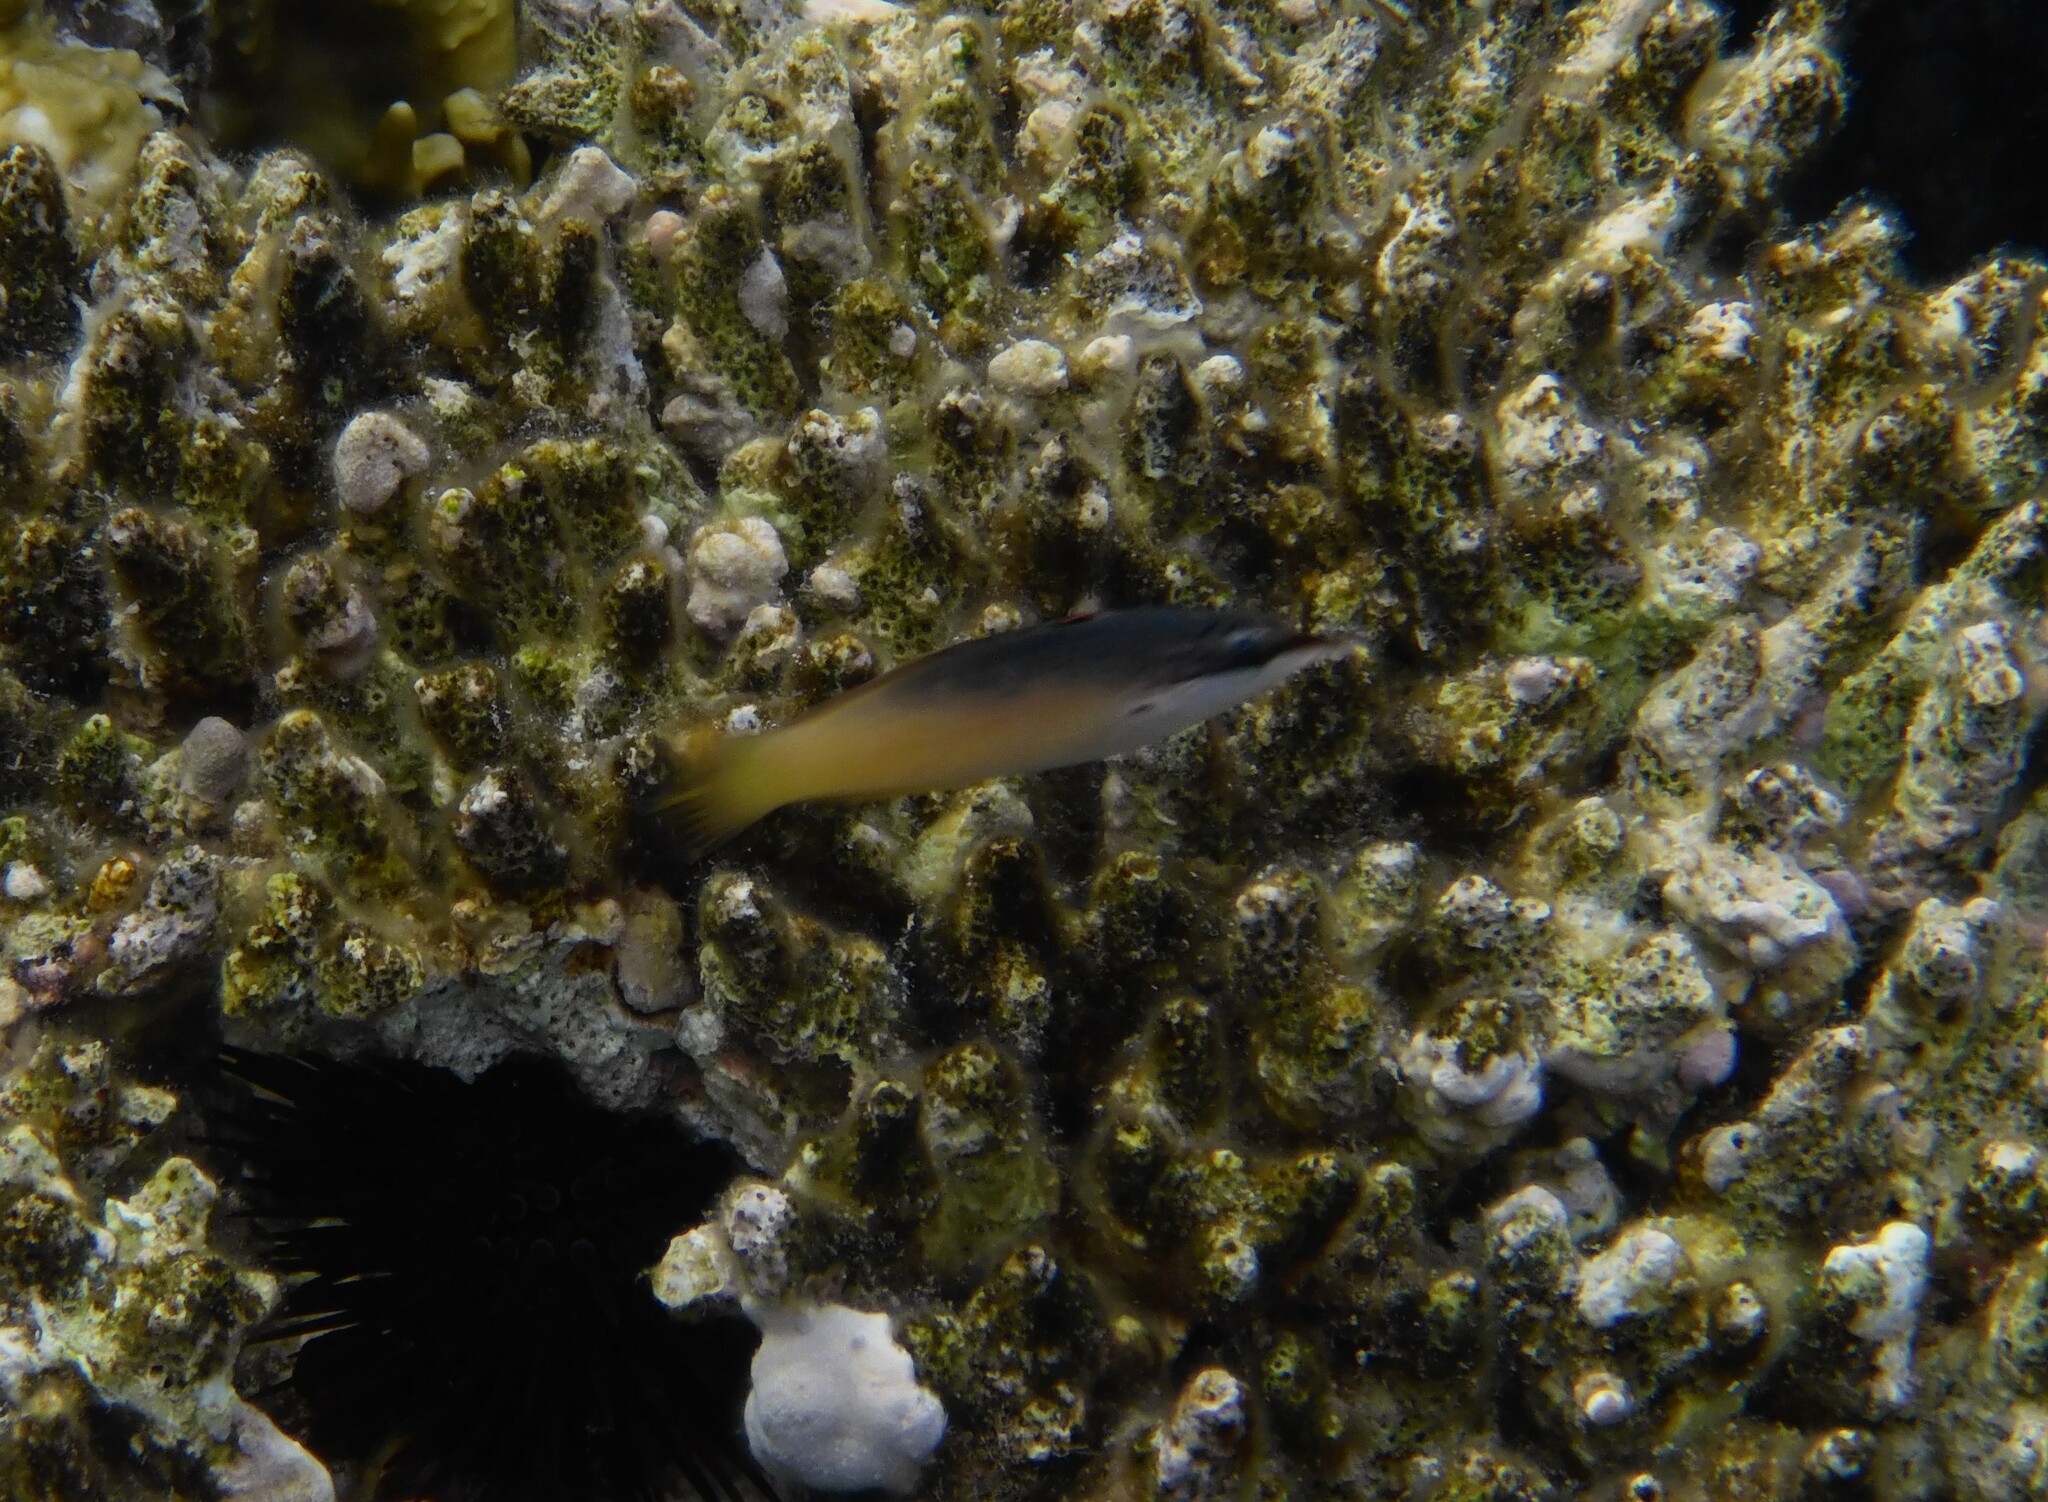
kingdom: Animalia
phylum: Chordata
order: Perciformes
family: Labridae
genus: Gomphosus
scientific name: Gomphosus klunzingeri
